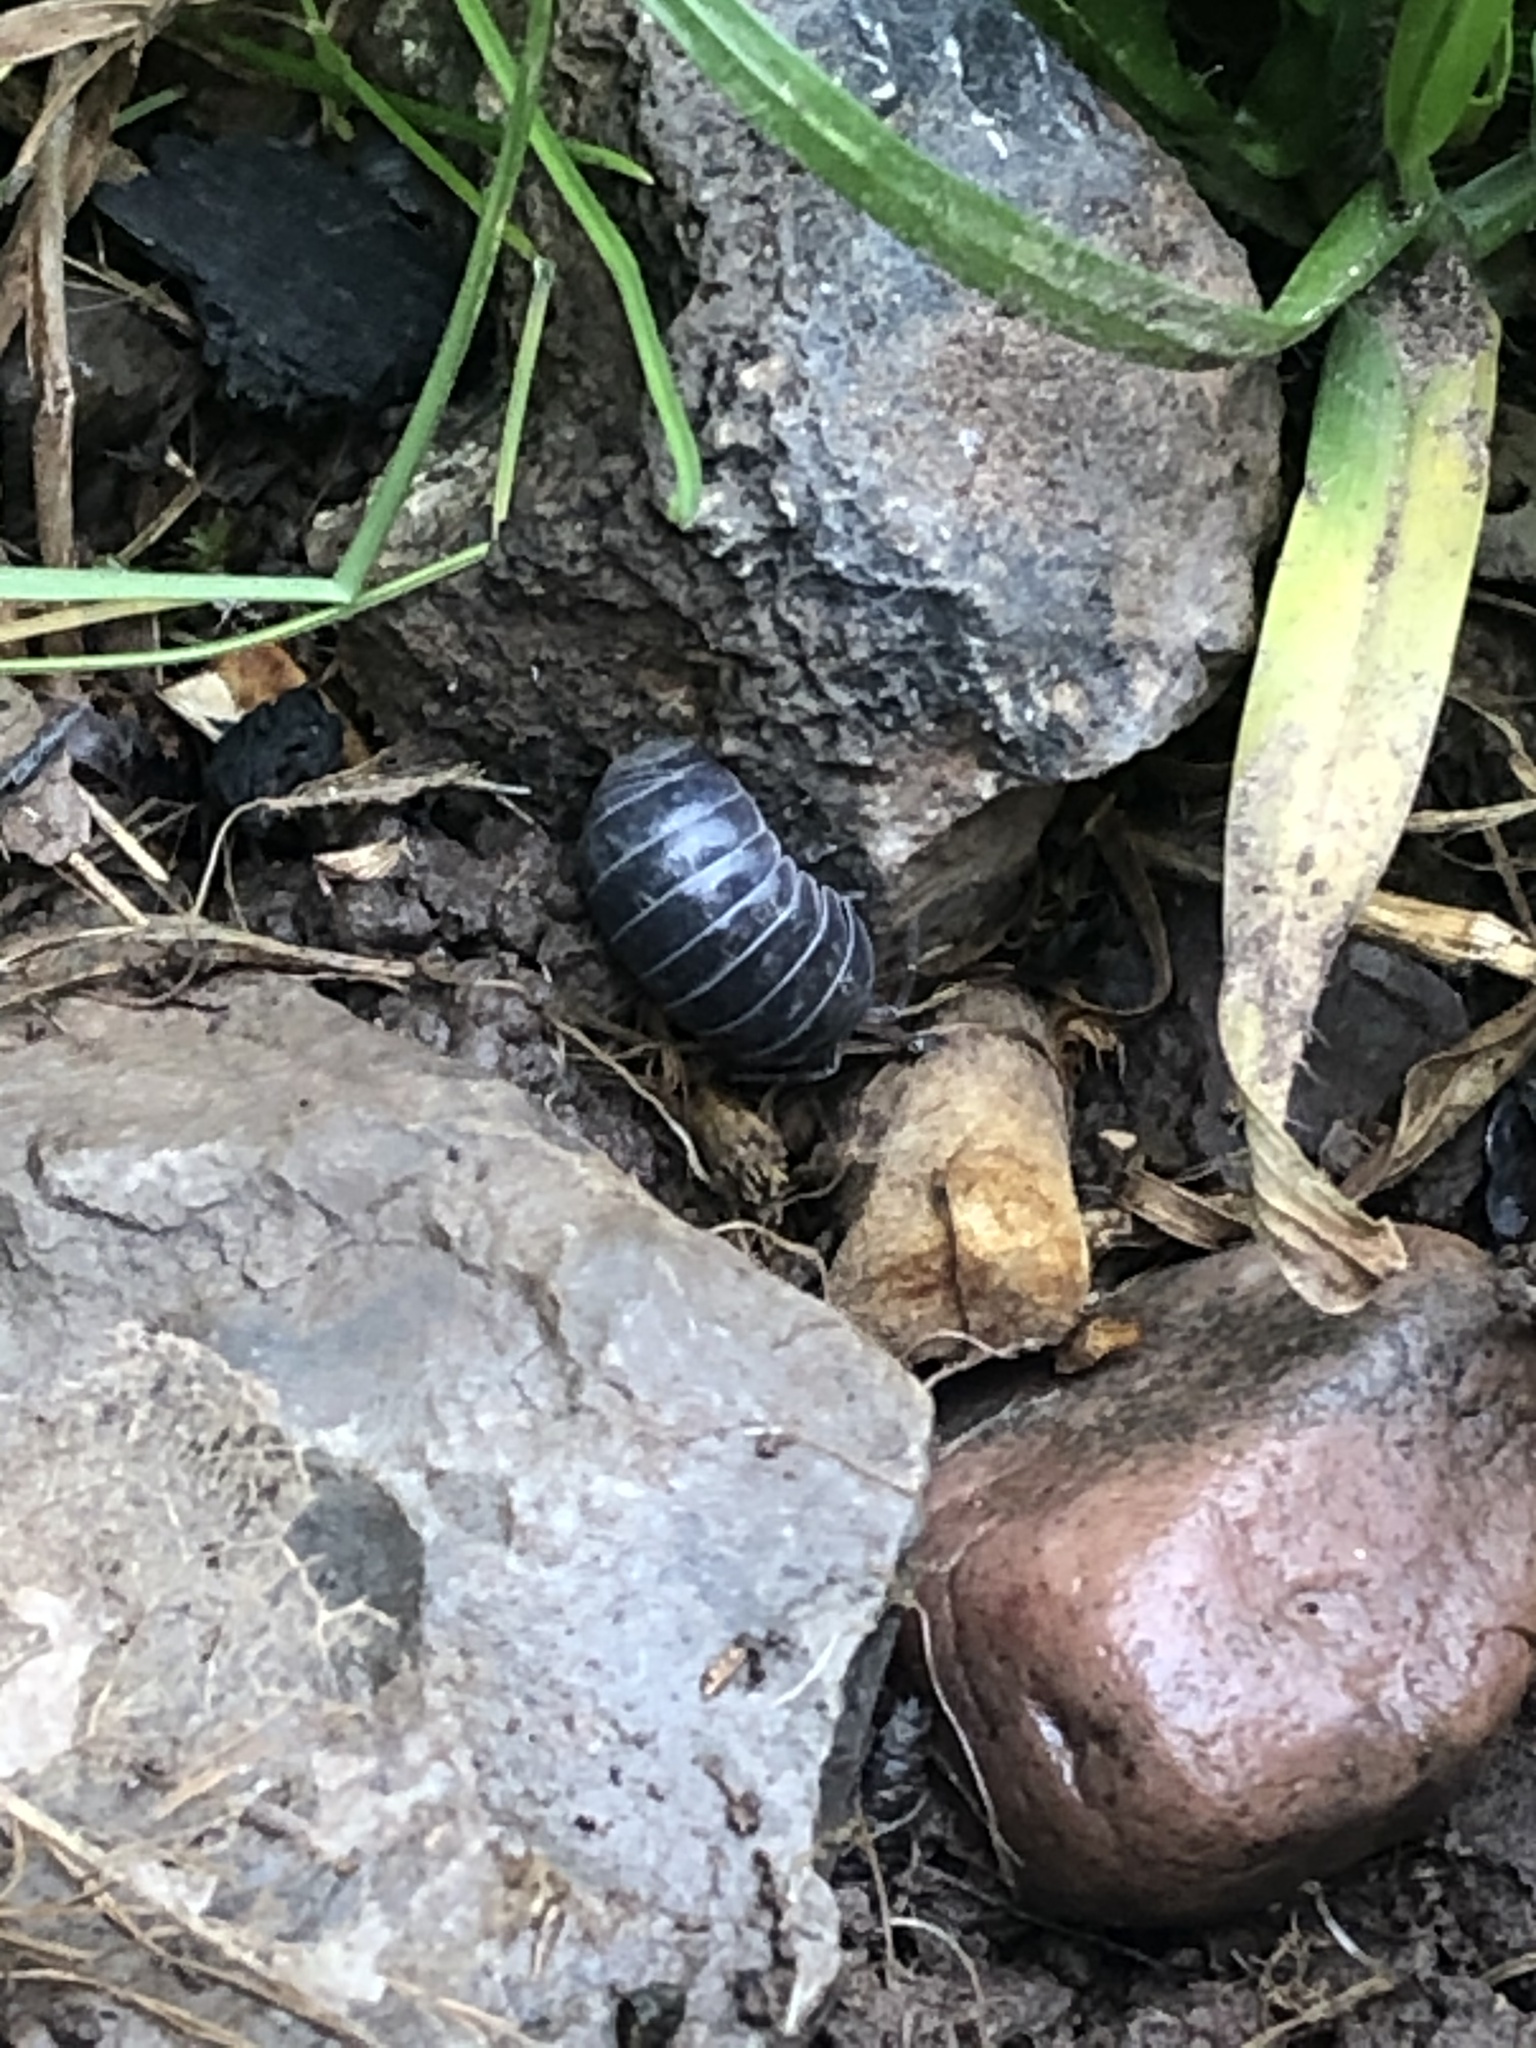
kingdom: Animalia
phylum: Arthropoda
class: Malacostraca
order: Isopoda
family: Armadillidiidae
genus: Armadillidium
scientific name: Armadillidium vulgare
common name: Common pill woodlouse
